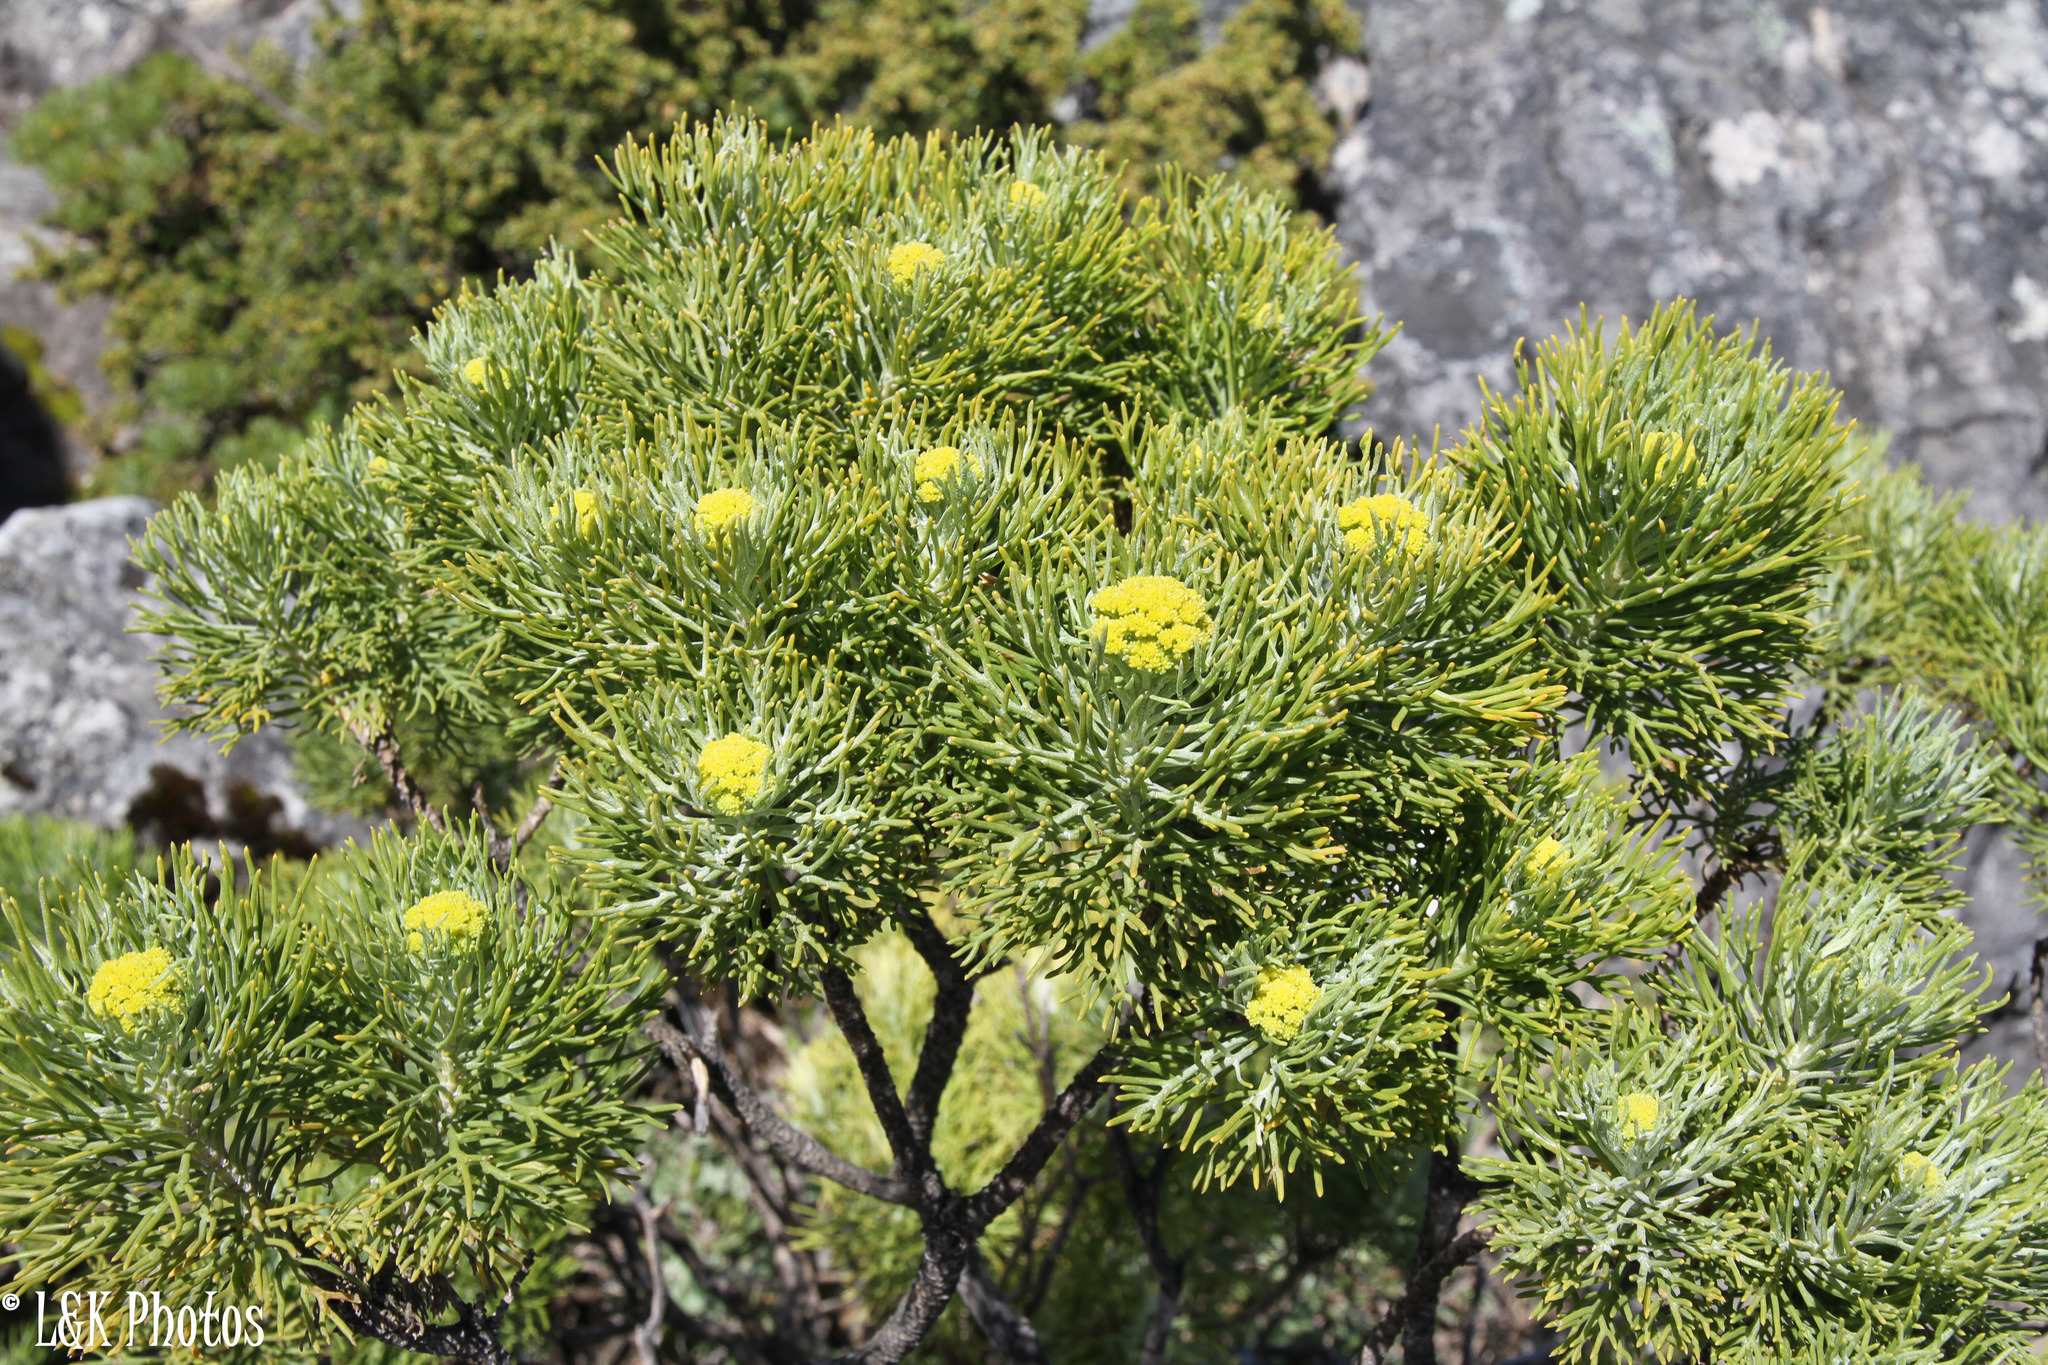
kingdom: Plantae
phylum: Tracheophyta
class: Magnoliopsida
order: Asterales
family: Asteraceae
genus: Hymenolepis
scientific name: Hymenolepis crithmifolia
